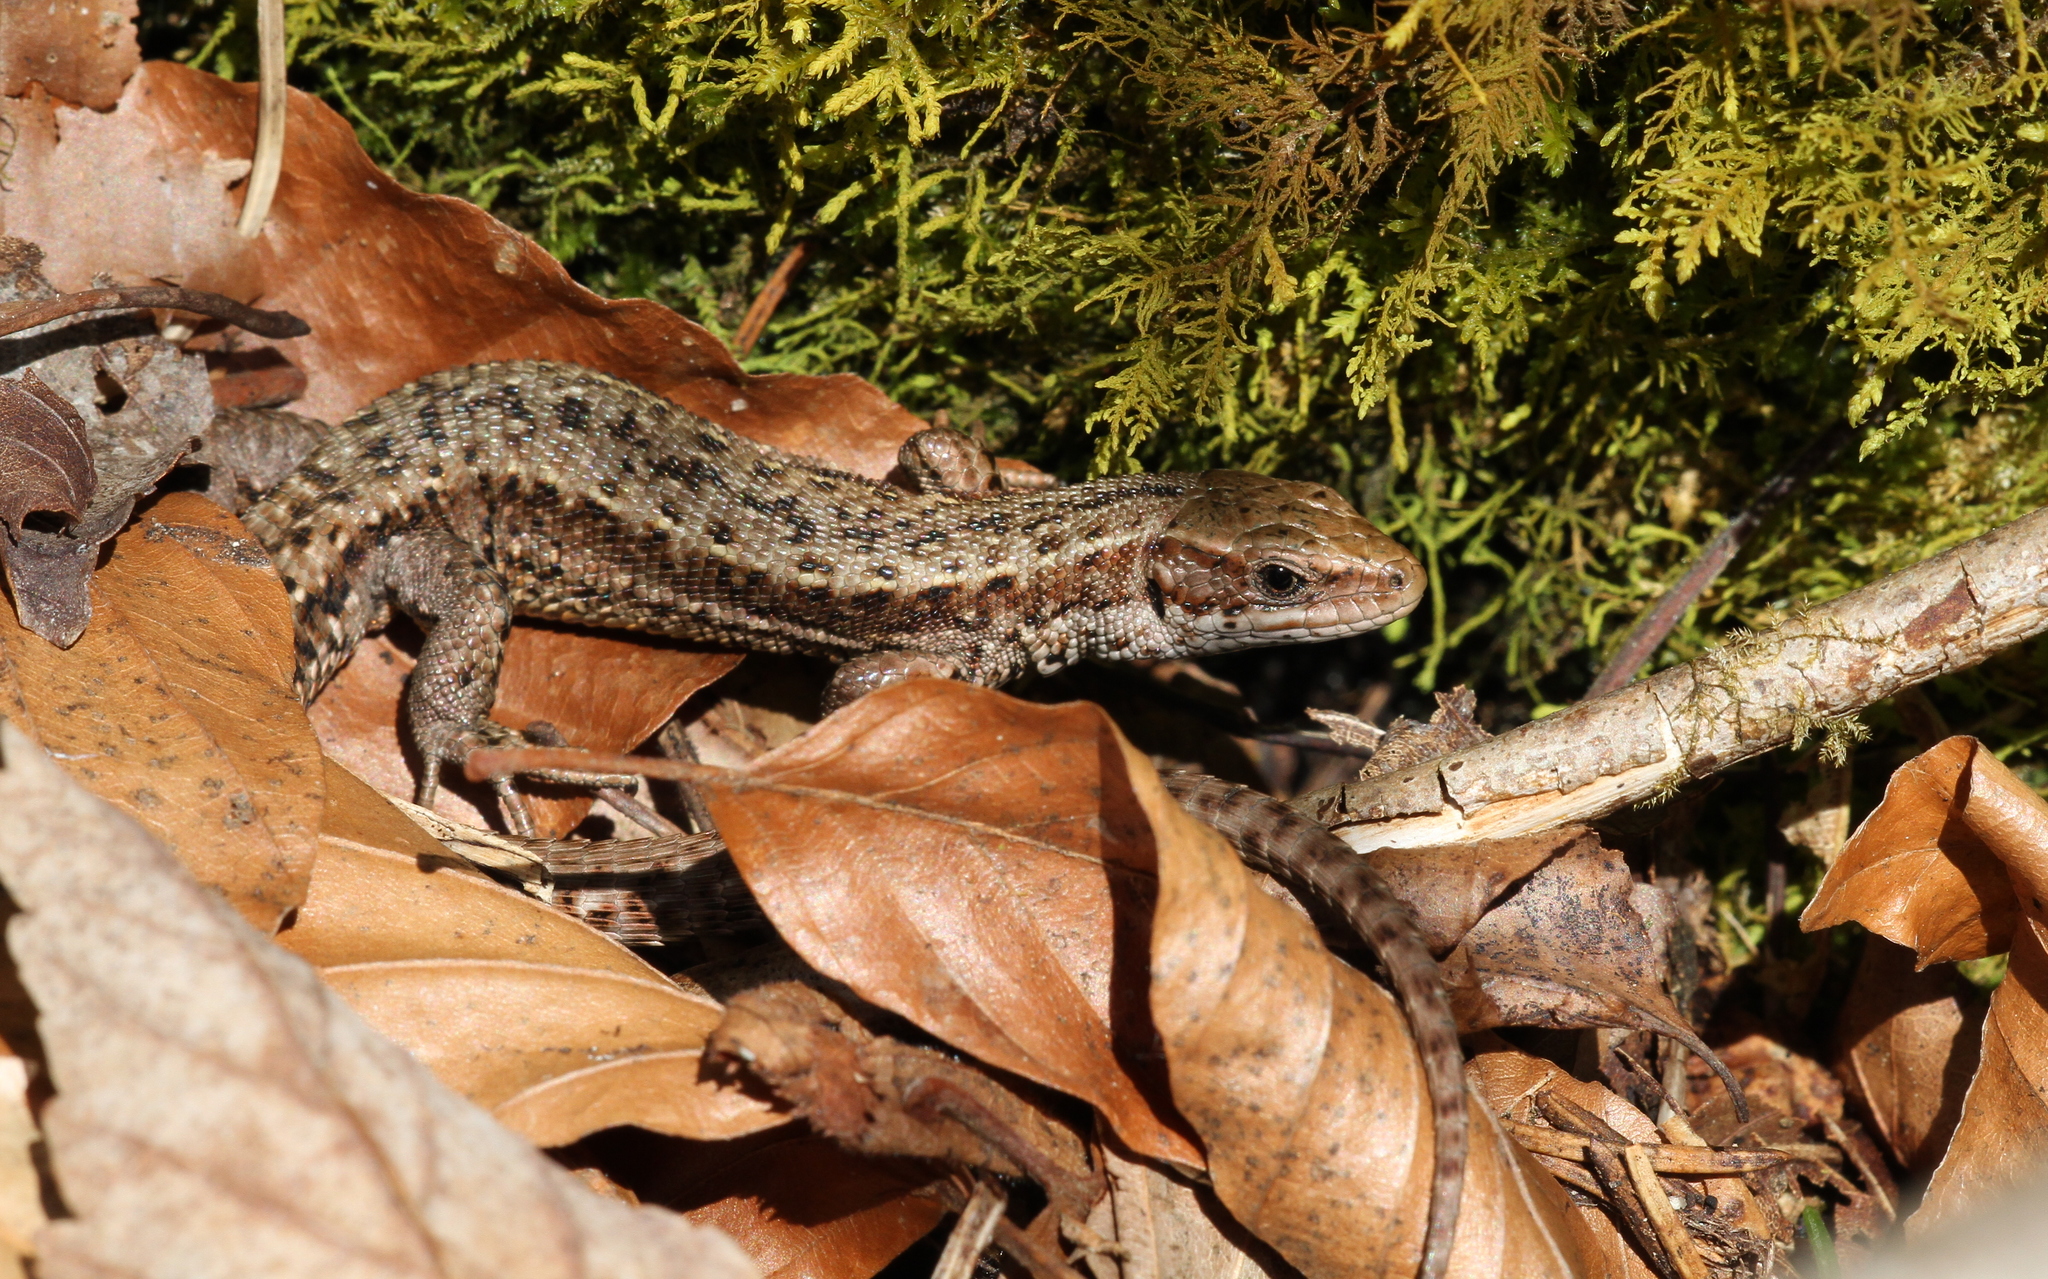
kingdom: Animalia
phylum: Chordata
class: Squamata
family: Lacertidae
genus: Zootoca
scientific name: Zootoca vivipara
